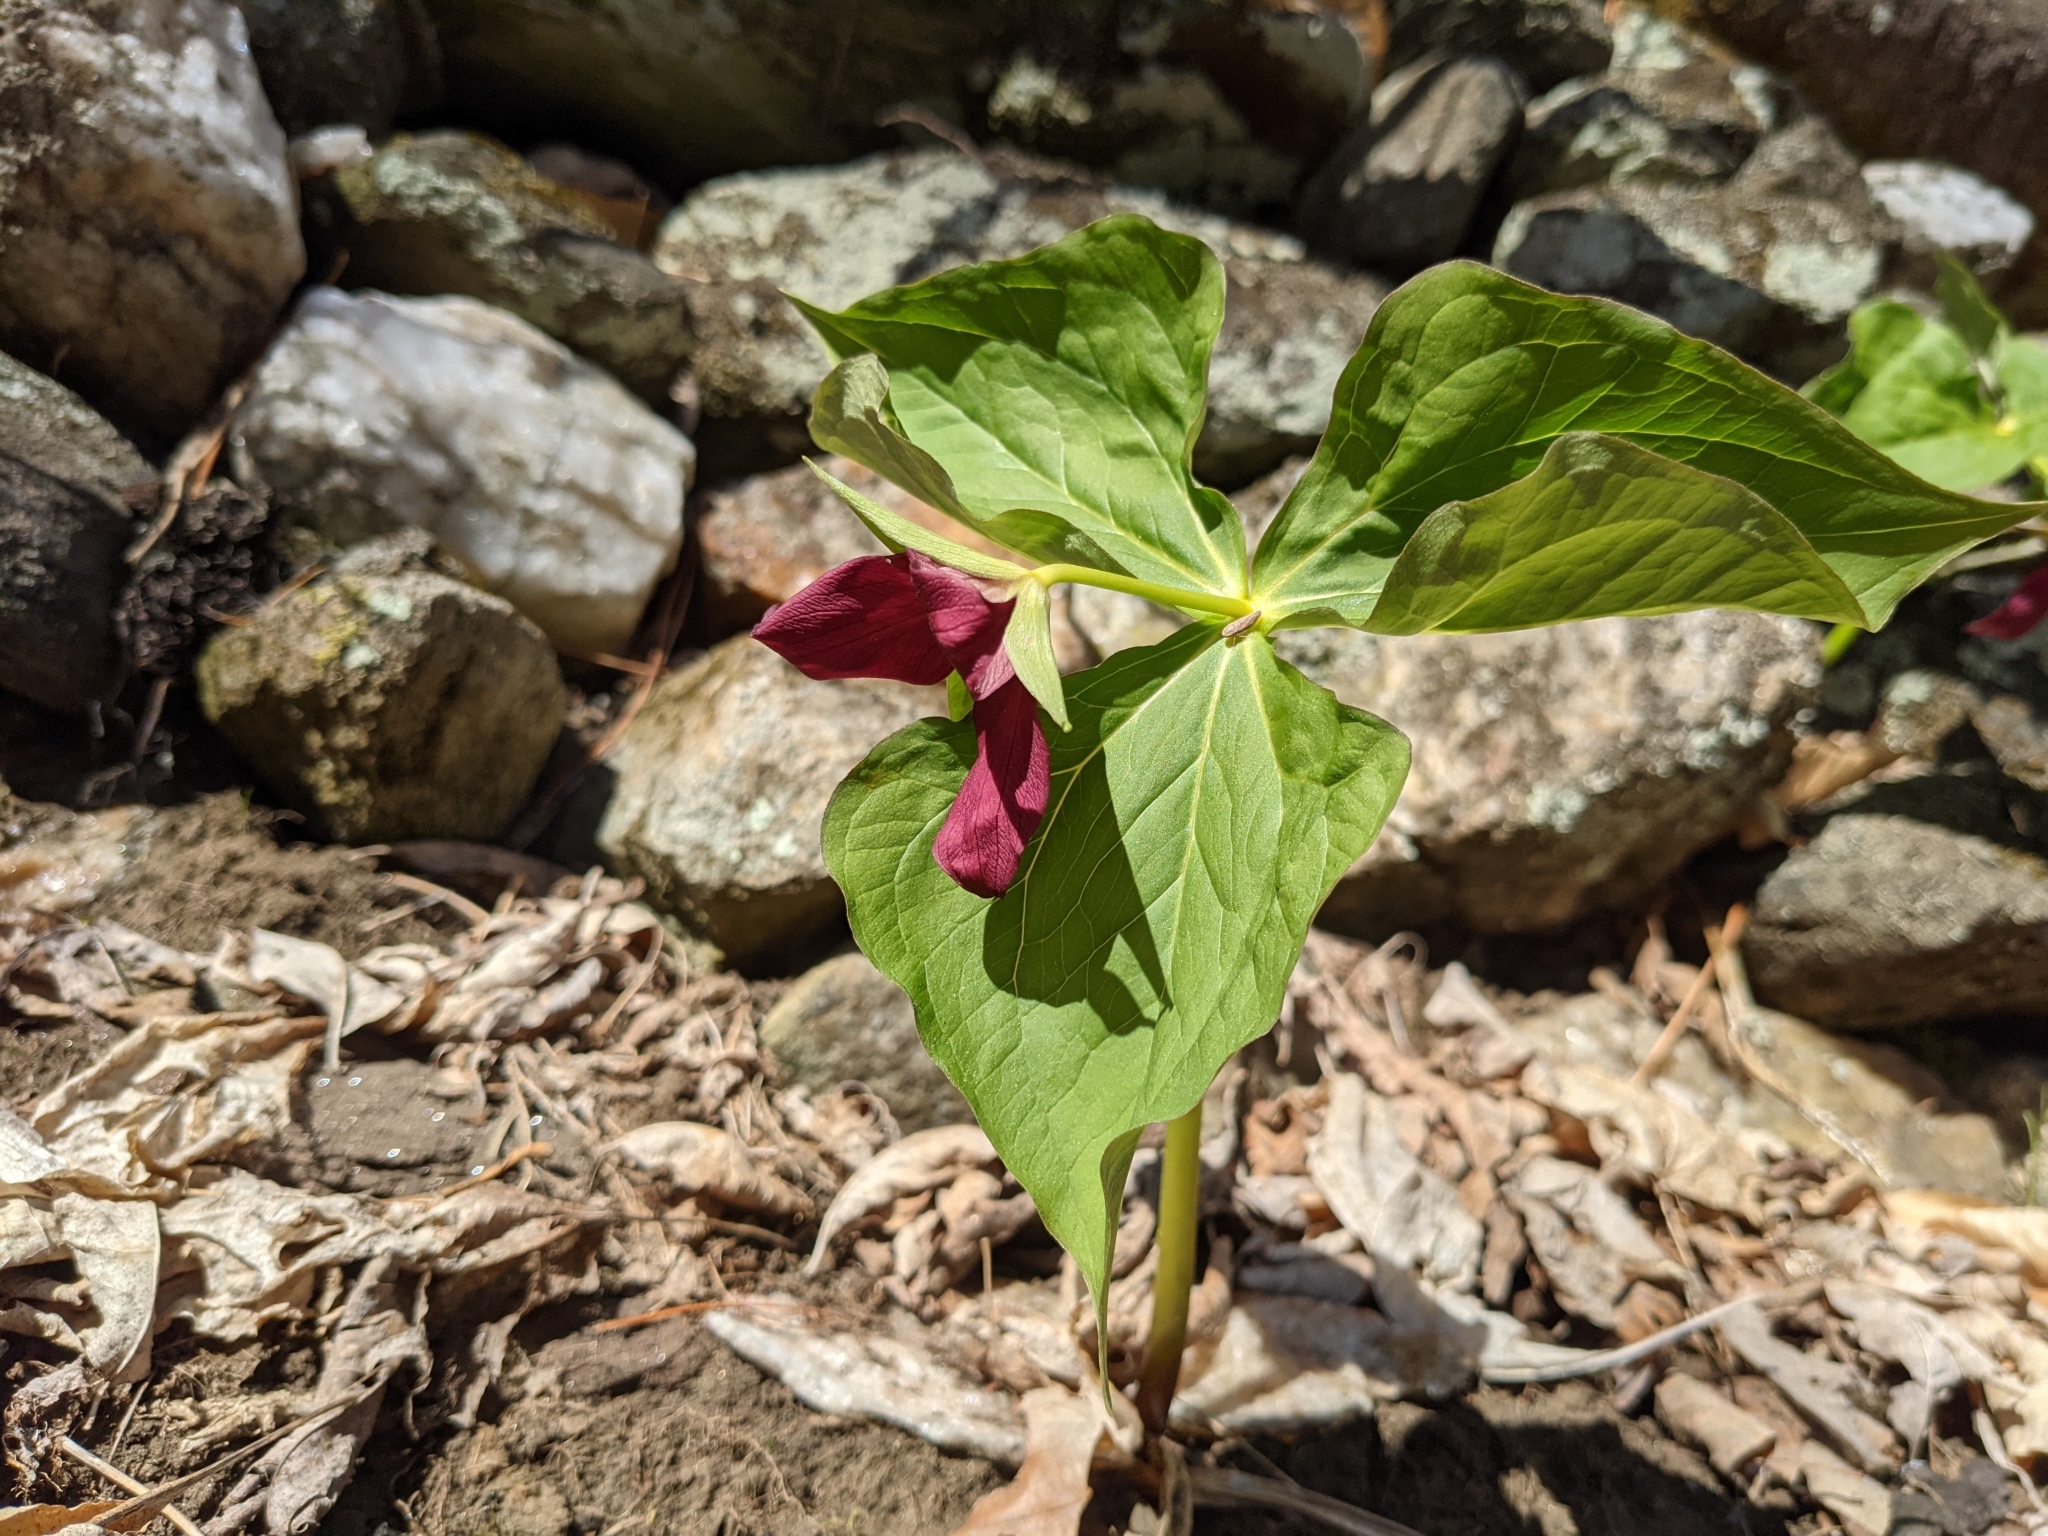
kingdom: Plantae
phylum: Tracheophyta
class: Liliopsida
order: Liliales
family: Melanthiaceae
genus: Trillium
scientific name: Trillium erectum
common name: Purple trillium
